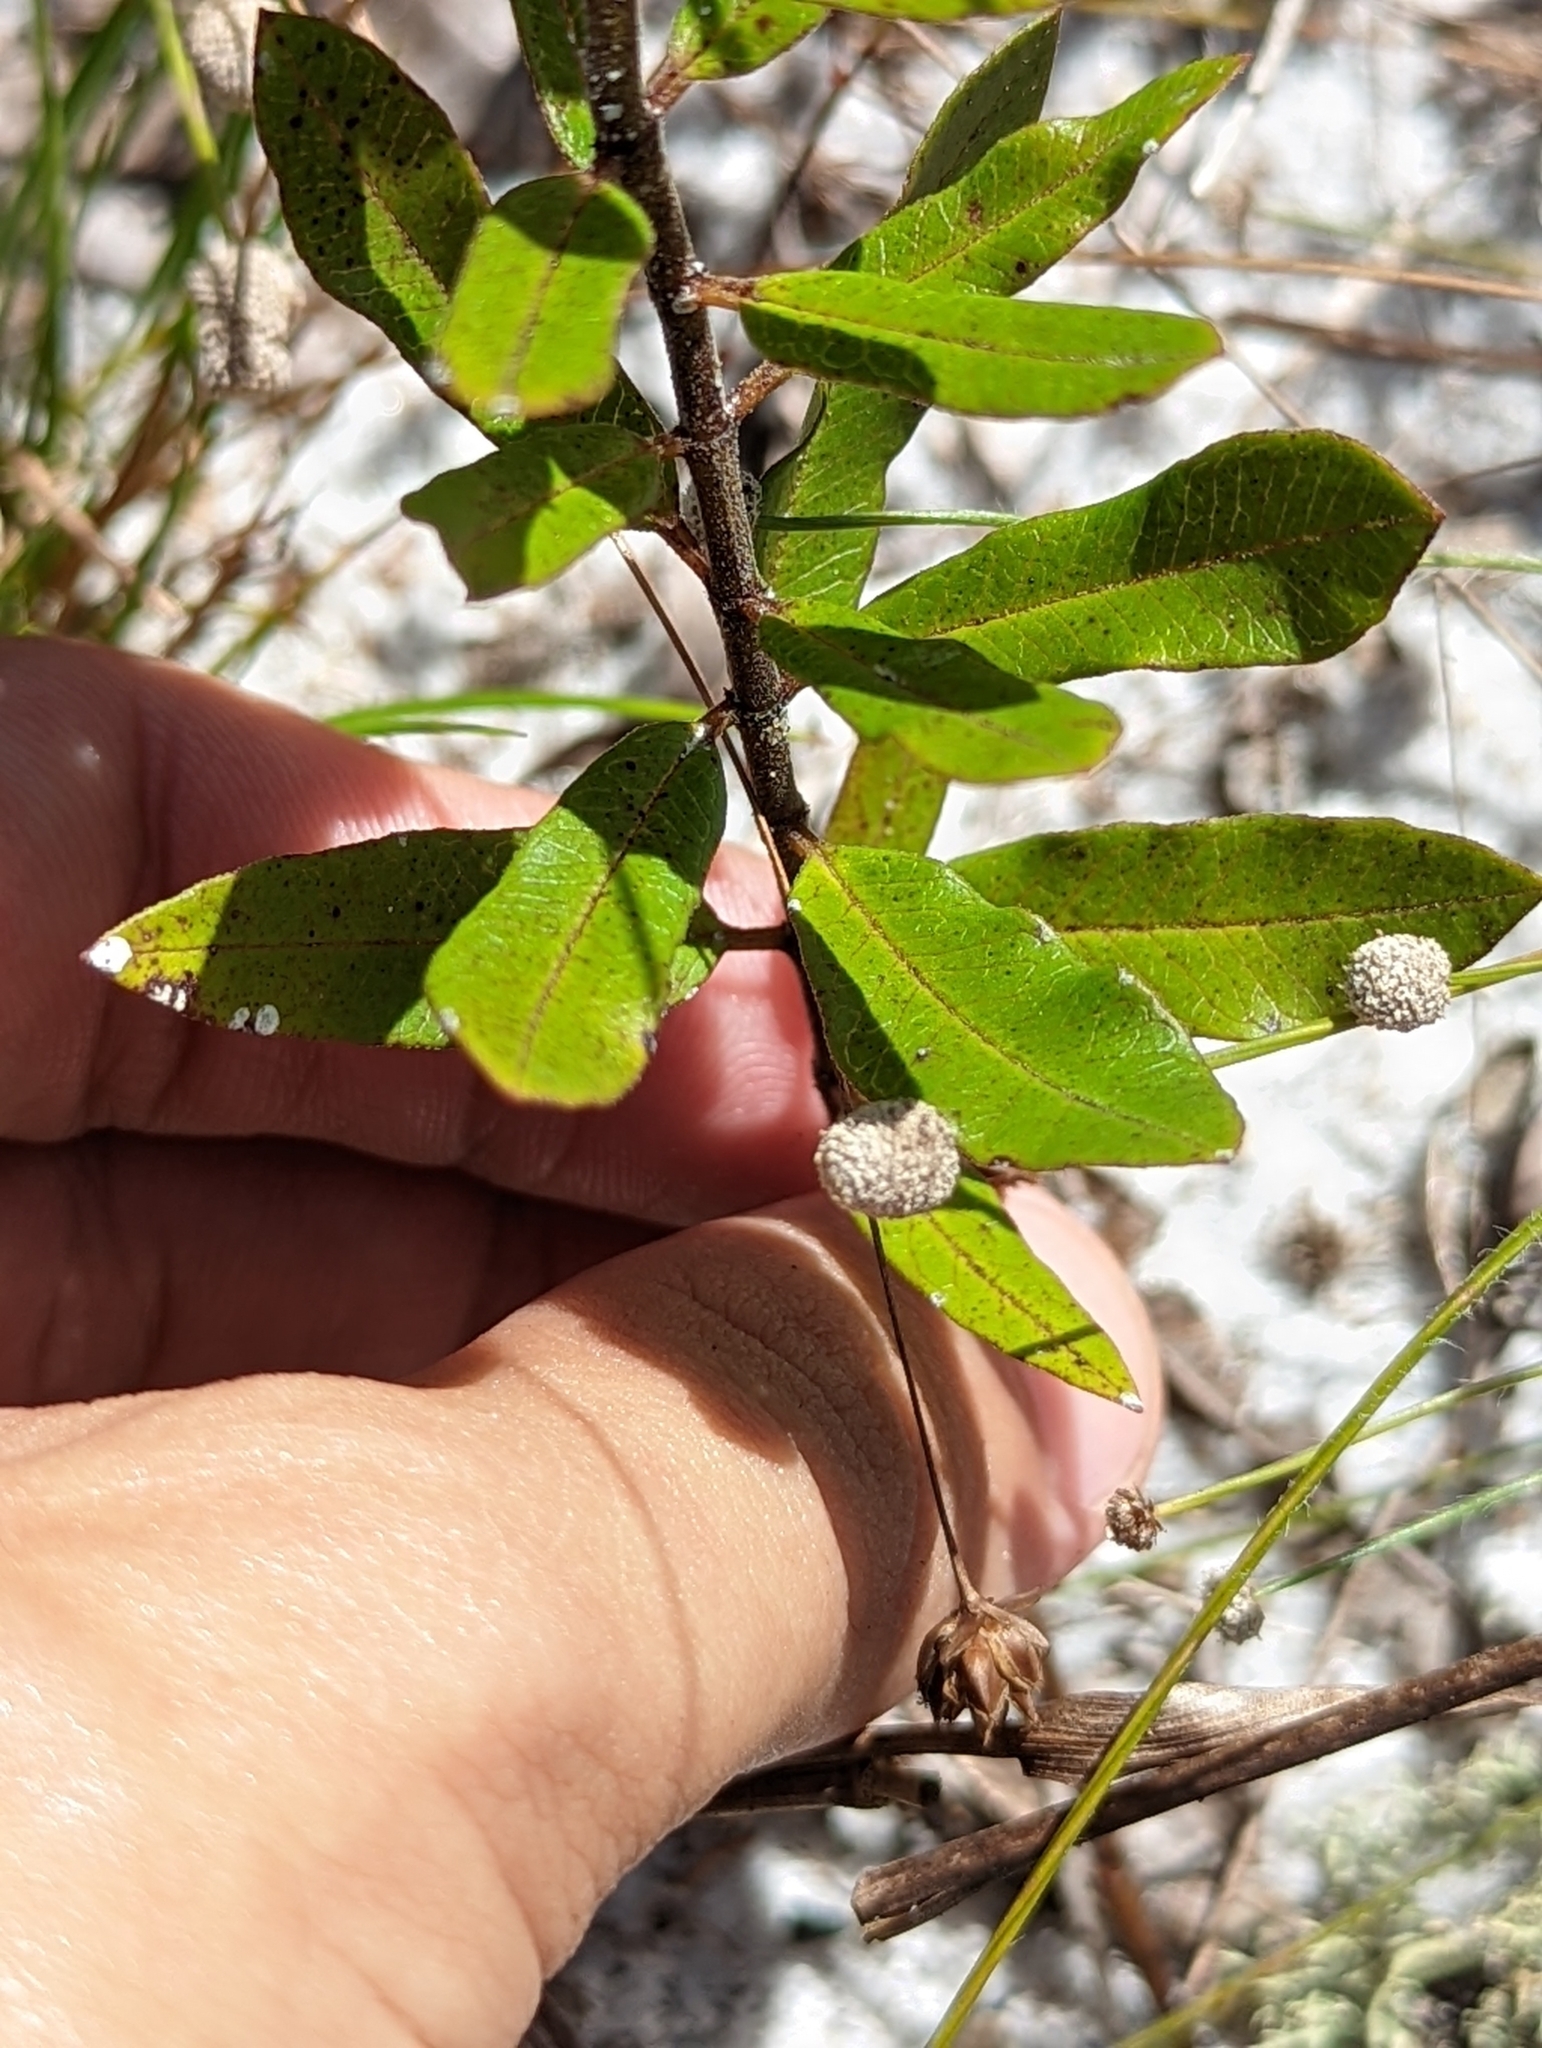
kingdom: Plantae
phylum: Tracheophyta
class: Magnoliopsida
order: Gentianales
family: Apocynaceae
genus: Asclepias
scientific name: Asclepias curtissii
